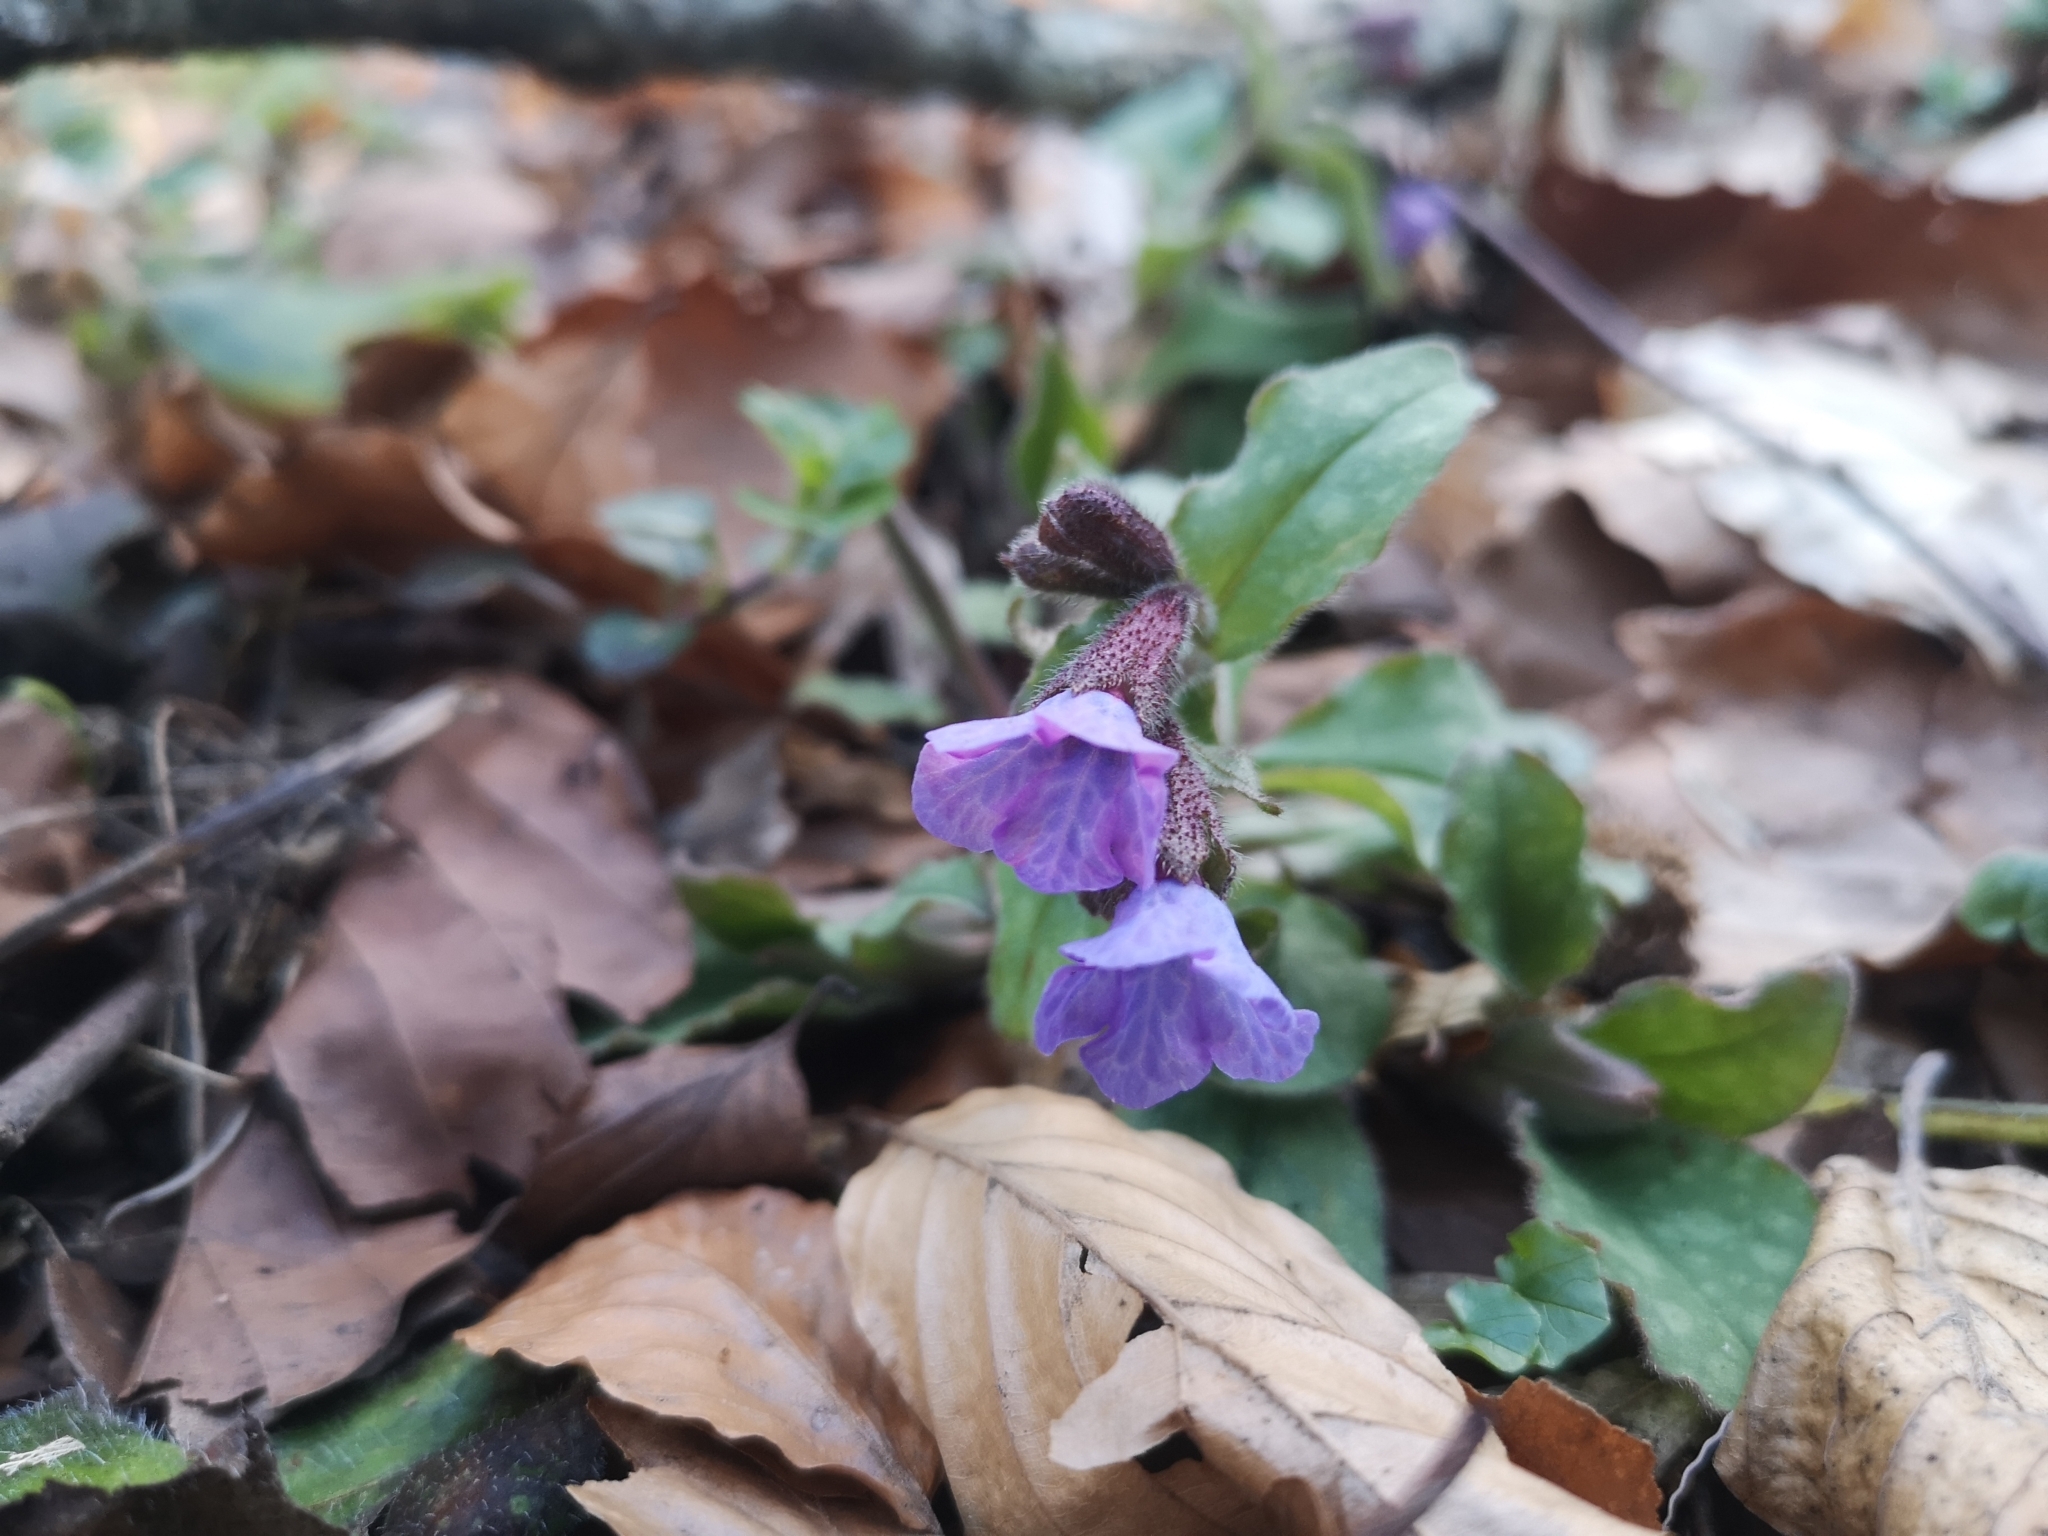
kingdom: Plantae
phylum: Tracheophyta
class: Magnoliopsida
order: Boraginales
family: Boraginaceae
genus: Pulmonaria
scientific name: Pulmonaria officinalis
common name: Lungwort
